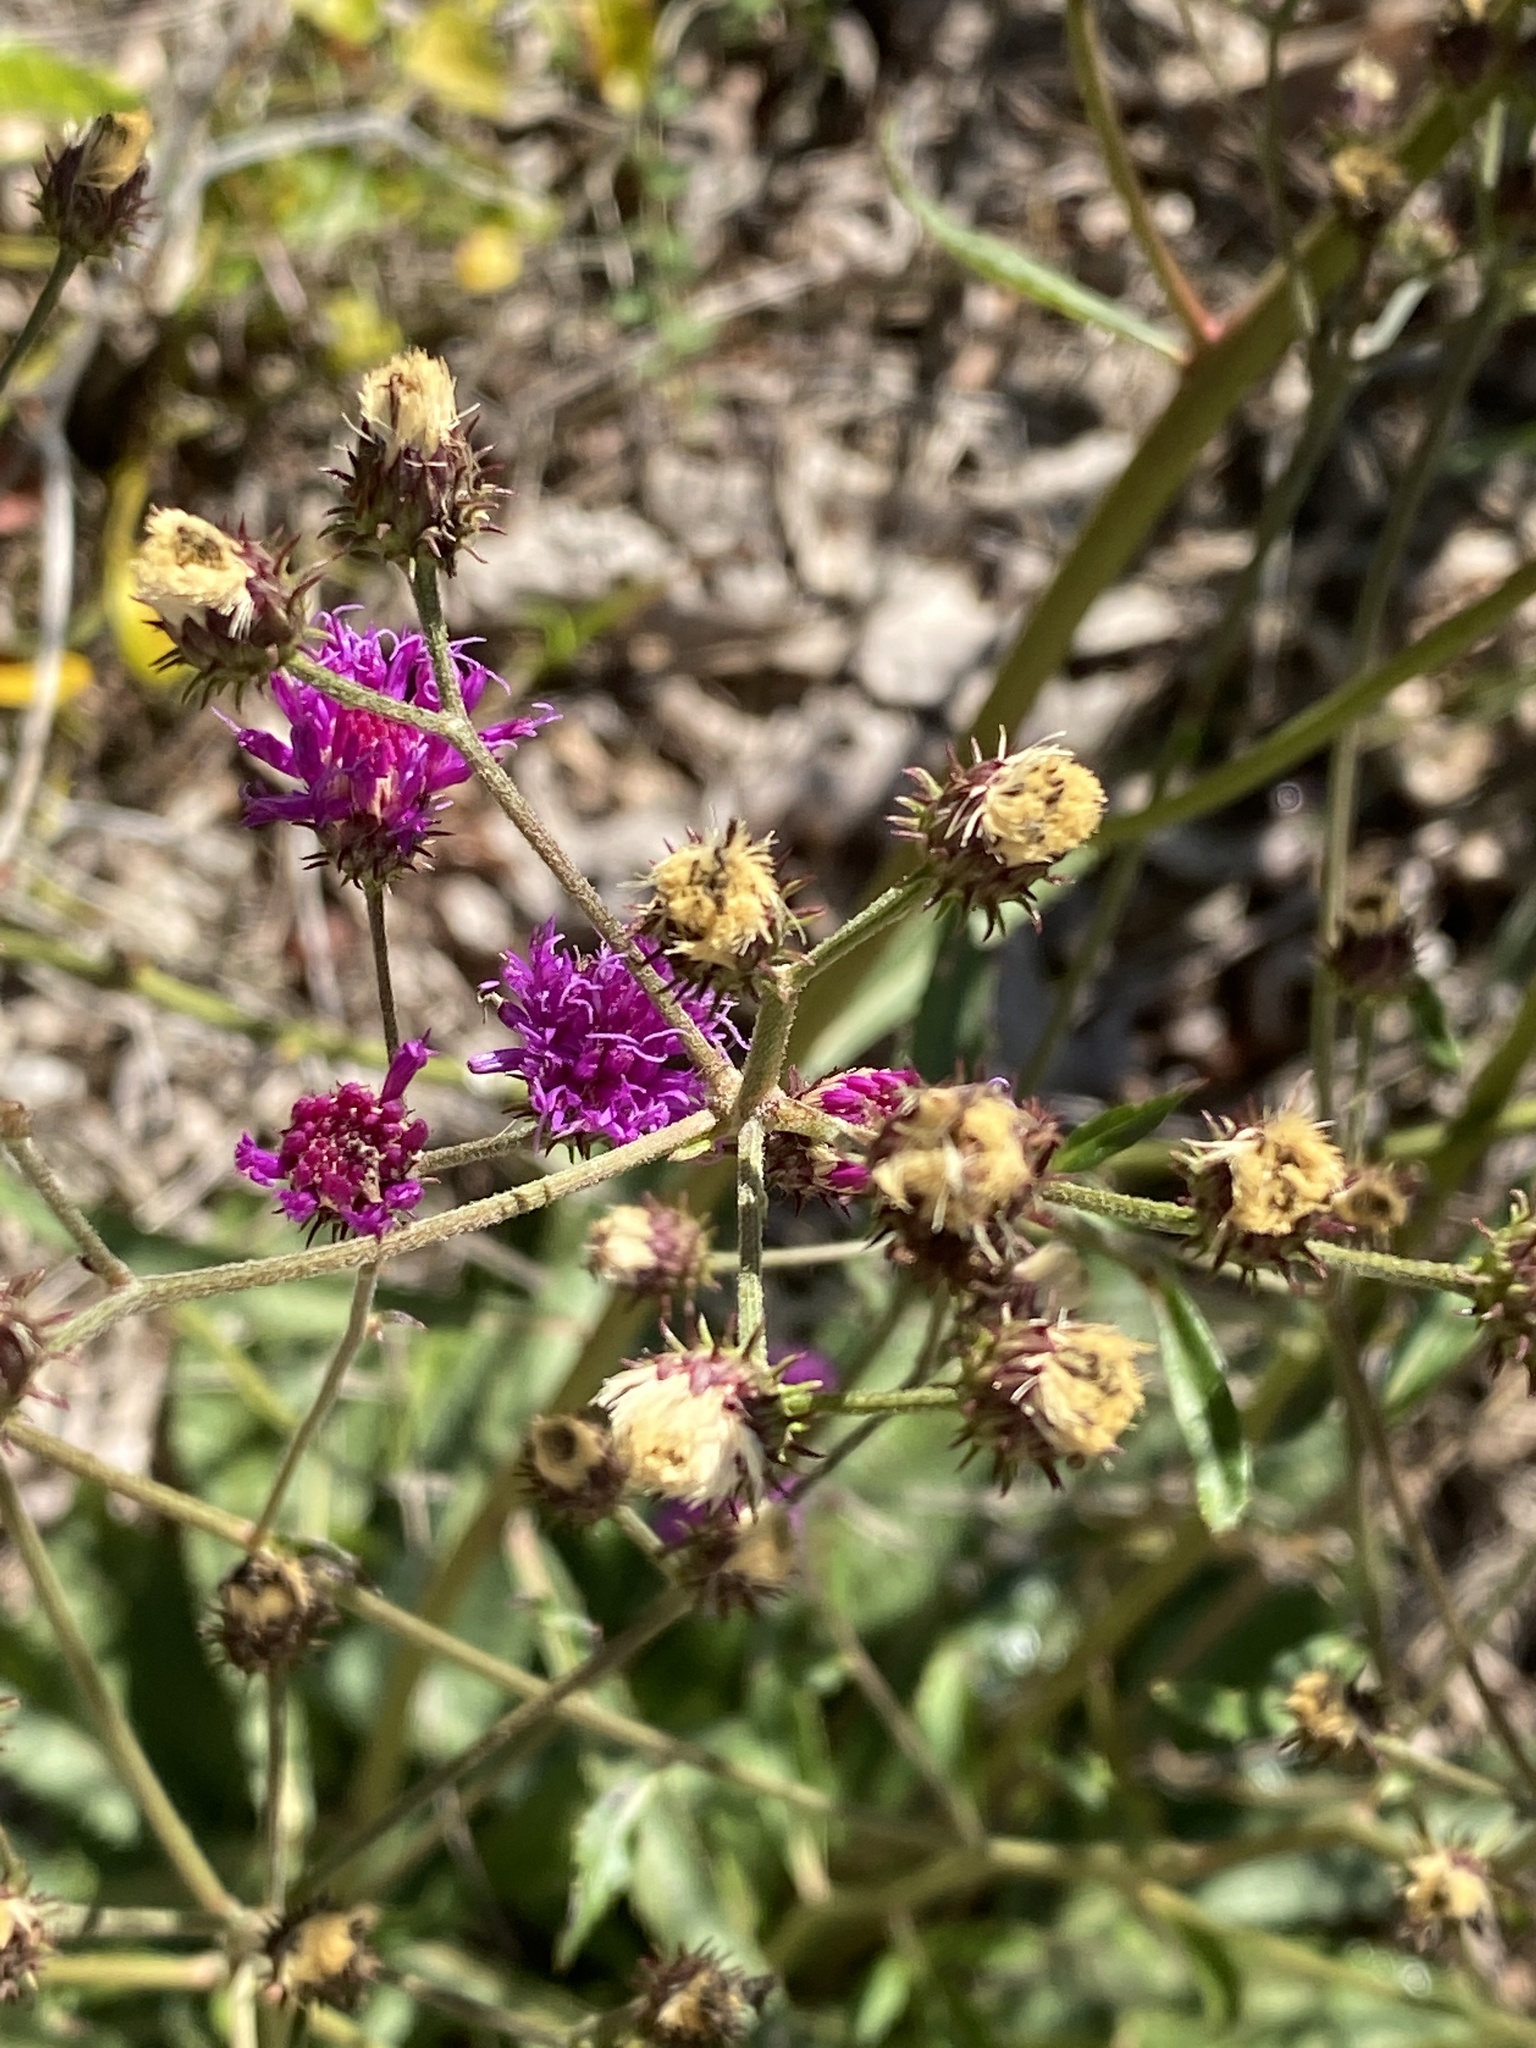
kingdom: Plantae
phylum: Tracheophyta
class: Magnoliopsida
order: Asterales
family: Asteraceae
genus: Vernonia
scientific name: Vernonia acaulis
